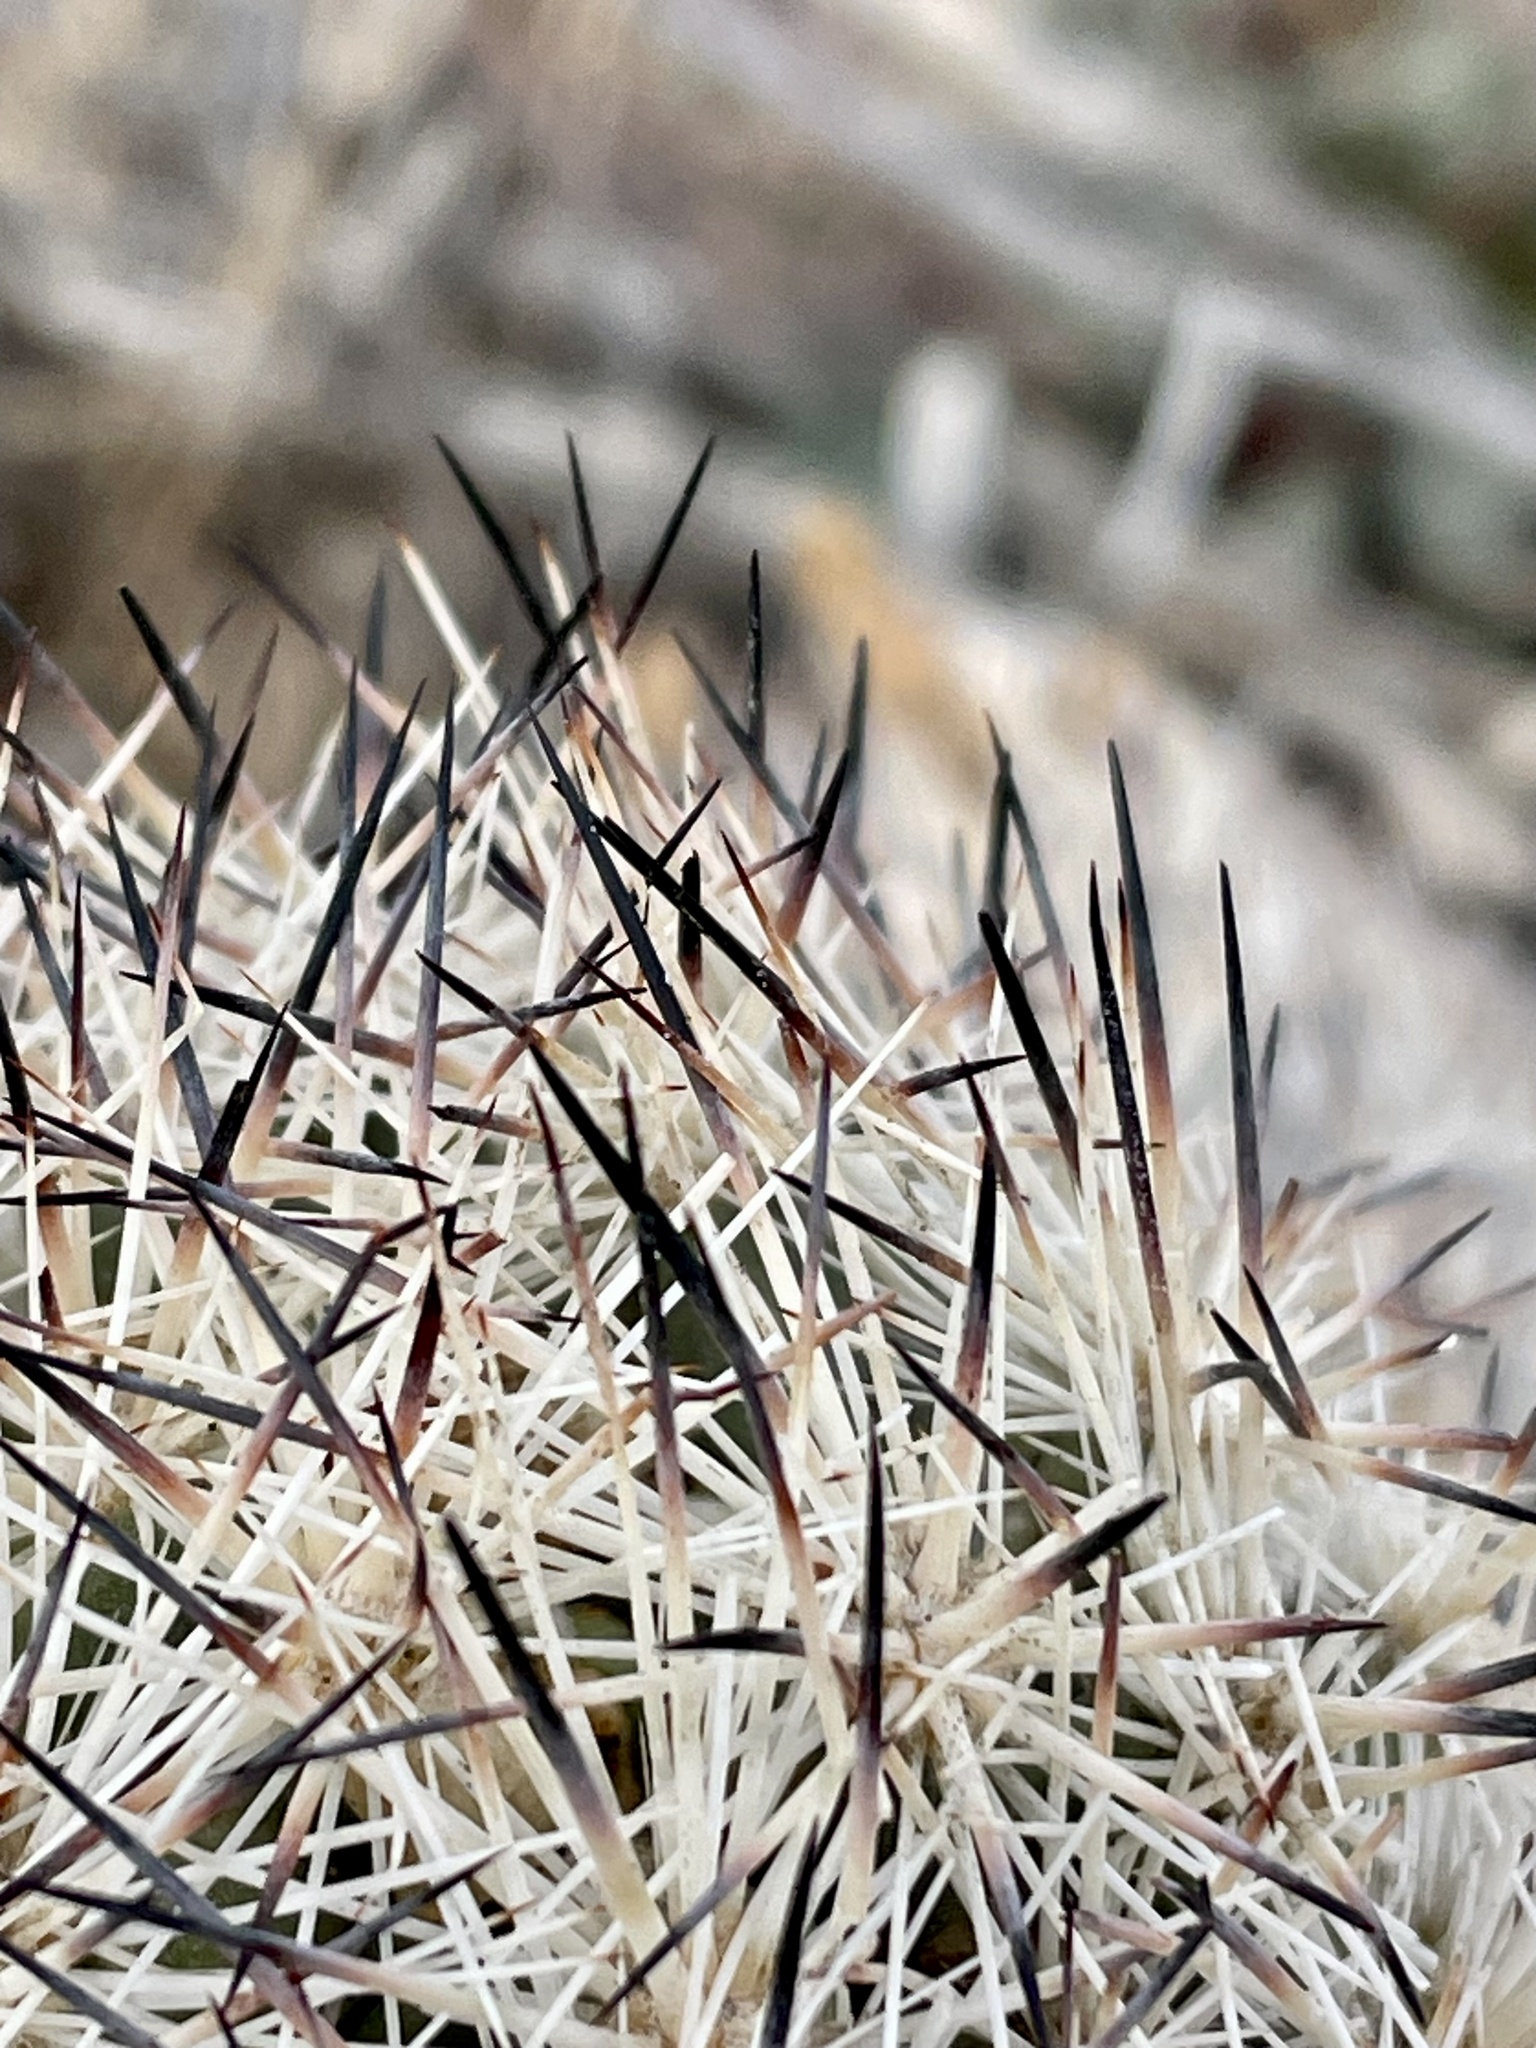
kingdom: Plantae
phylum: Tracheophyta
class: Magnoliopsida
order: Caryophyllales
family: Cactaceae
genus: Pelecyphora
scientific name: Pelecyphora alversonii
